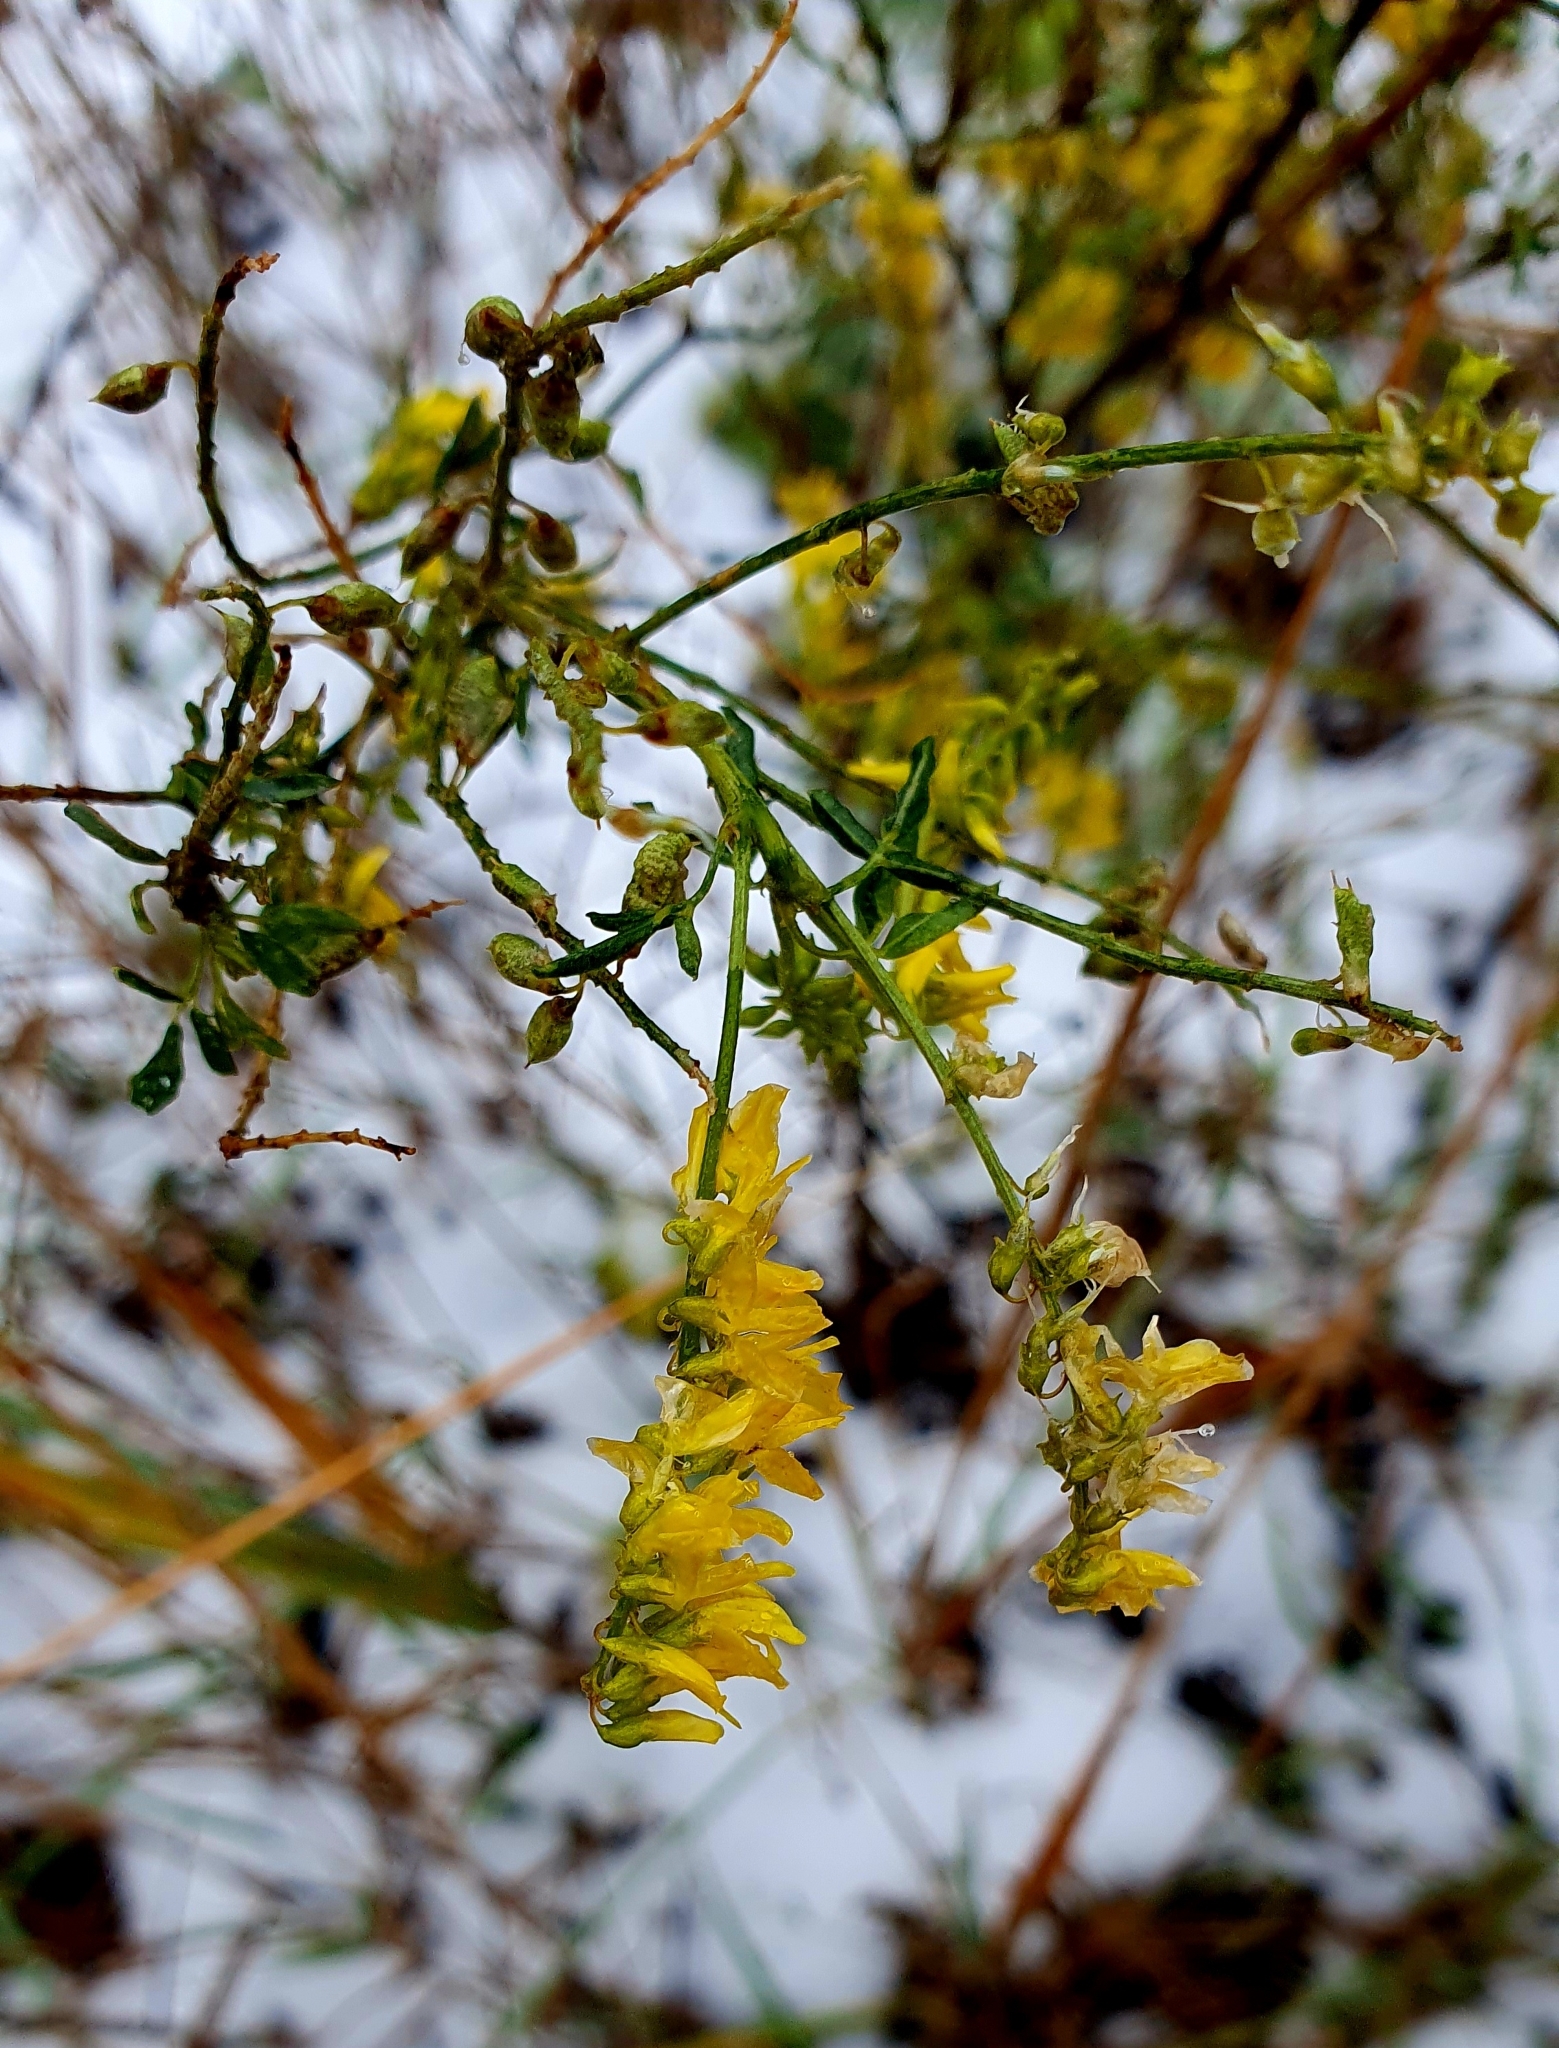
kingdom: Plantae
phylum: Tracheophyta
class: Magnoliopsida
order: Fabales
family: Fabaceae
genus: Melilotus
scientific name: Melilotus officinalis
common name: Sweetclover
